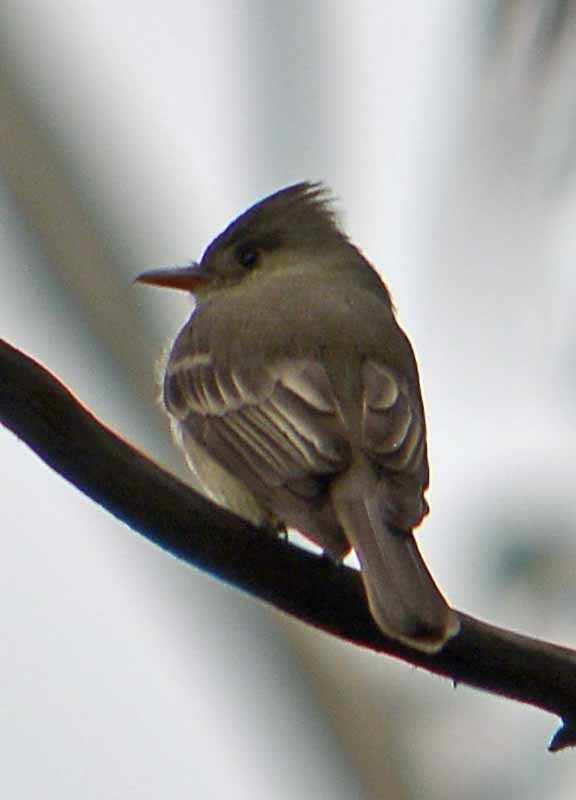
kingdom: Animalia
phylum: Chordata
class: Aves
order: Passeriformes
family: Tyrannidae
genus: Contopus
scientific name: Contopus pertinax
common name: Greater pewee
